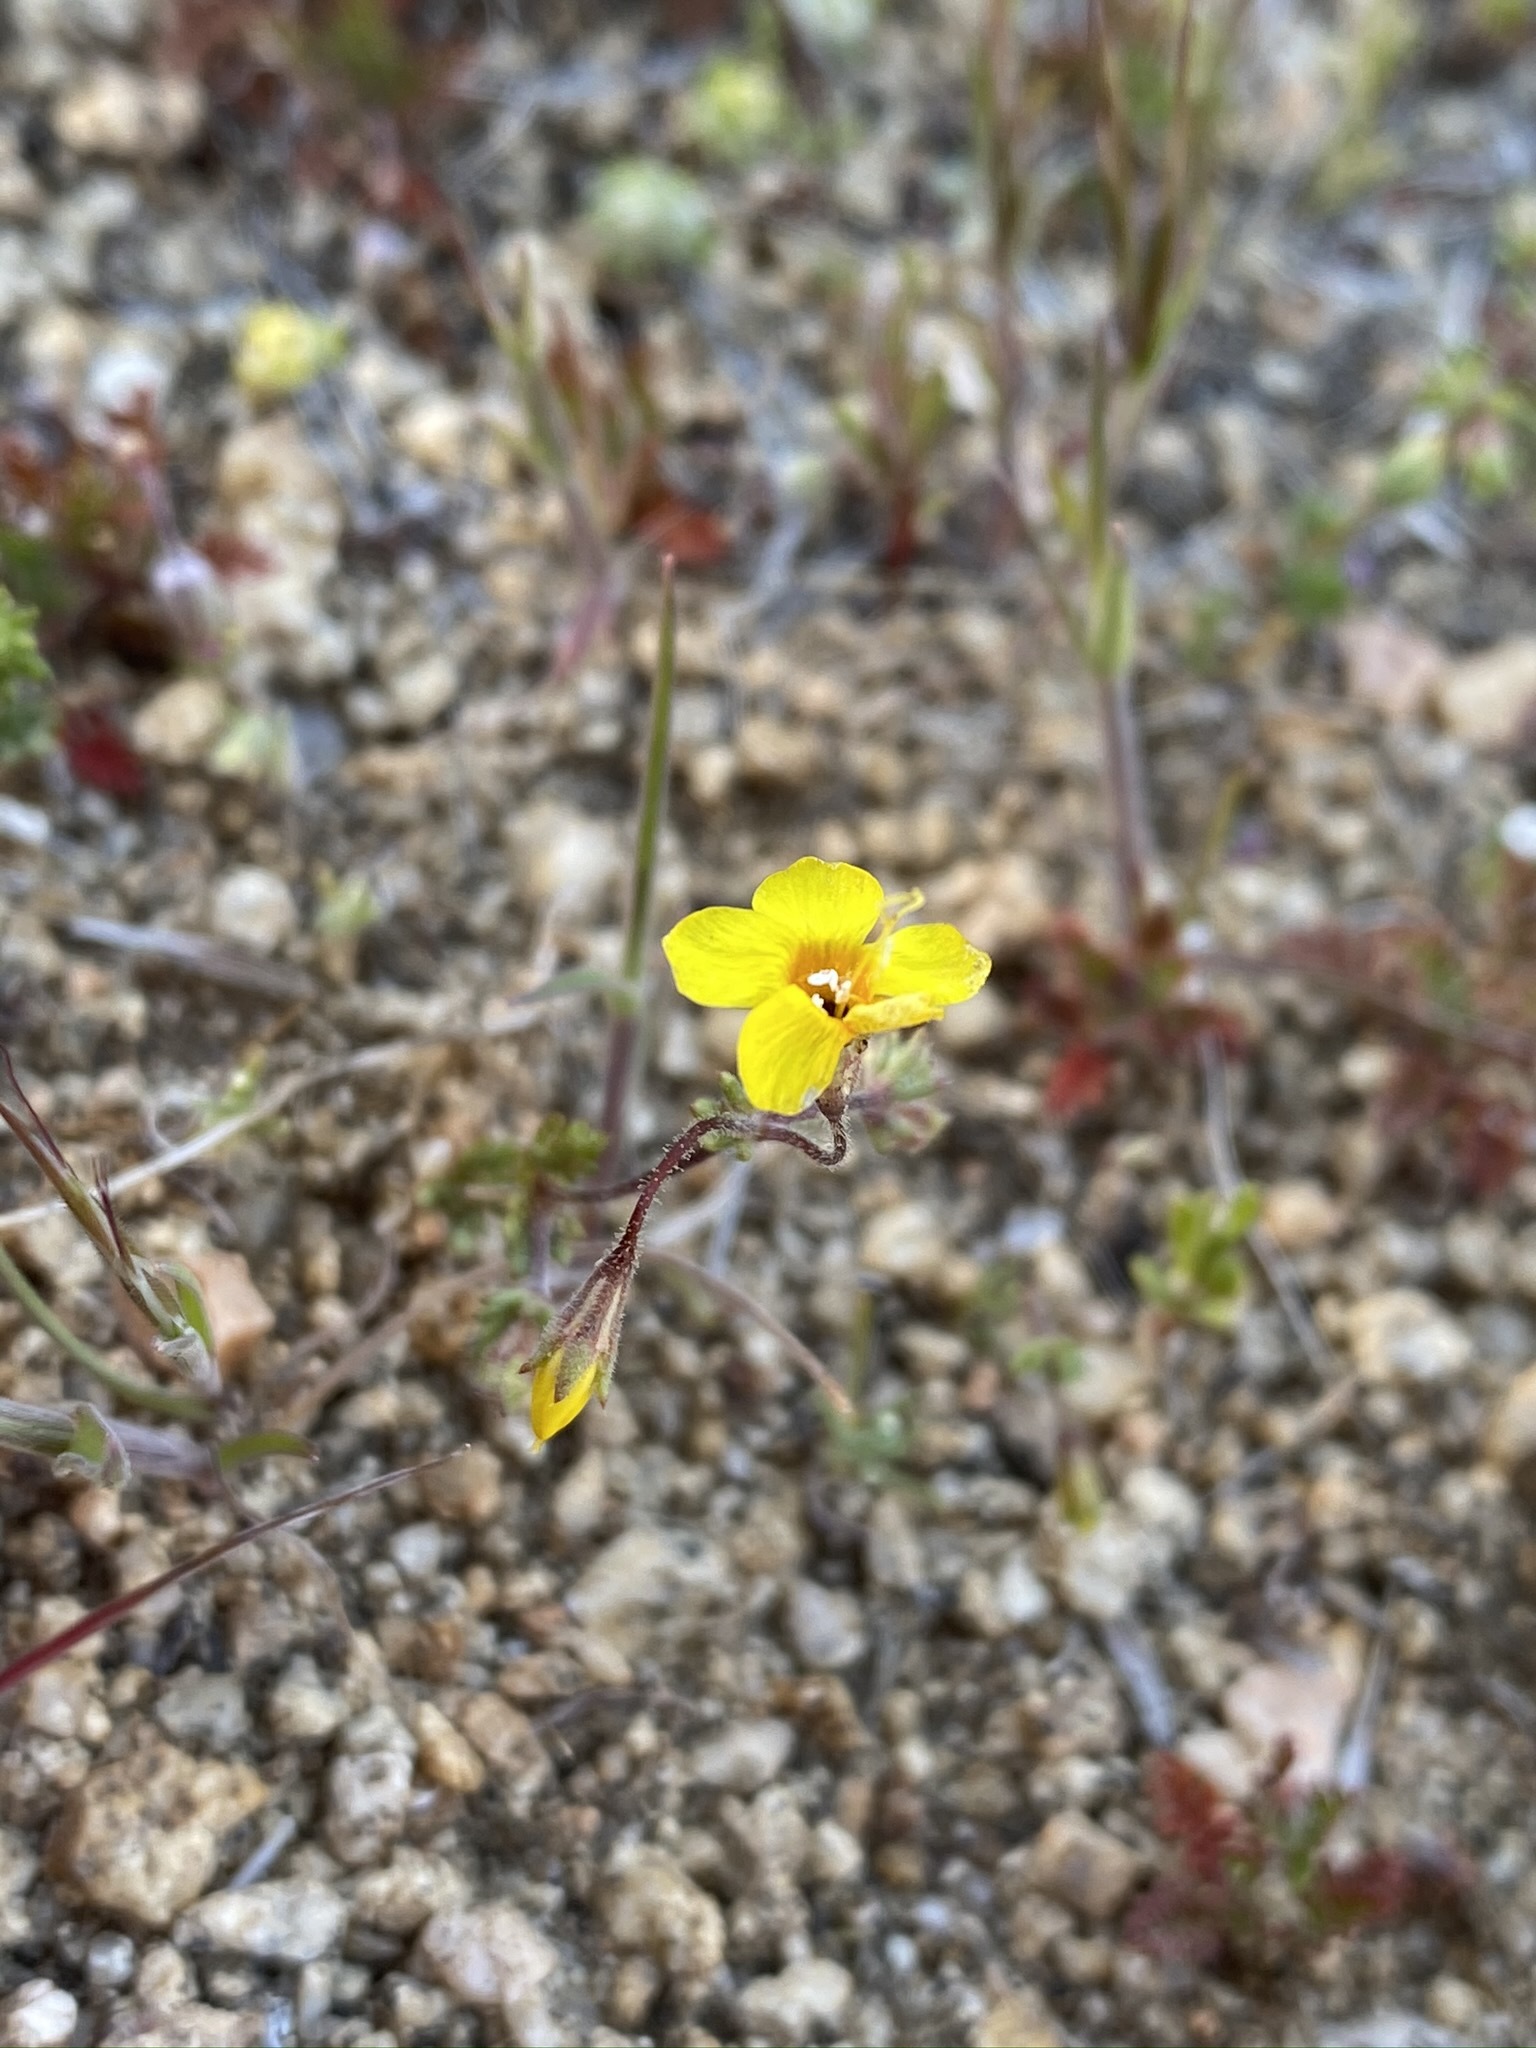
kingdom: Plantae
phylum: Tracheophyta
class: Magnoliopsida
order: Ericales
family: Polemoniaceae
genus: Leptosiphon
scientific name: Leptosiphon chrysanthus
